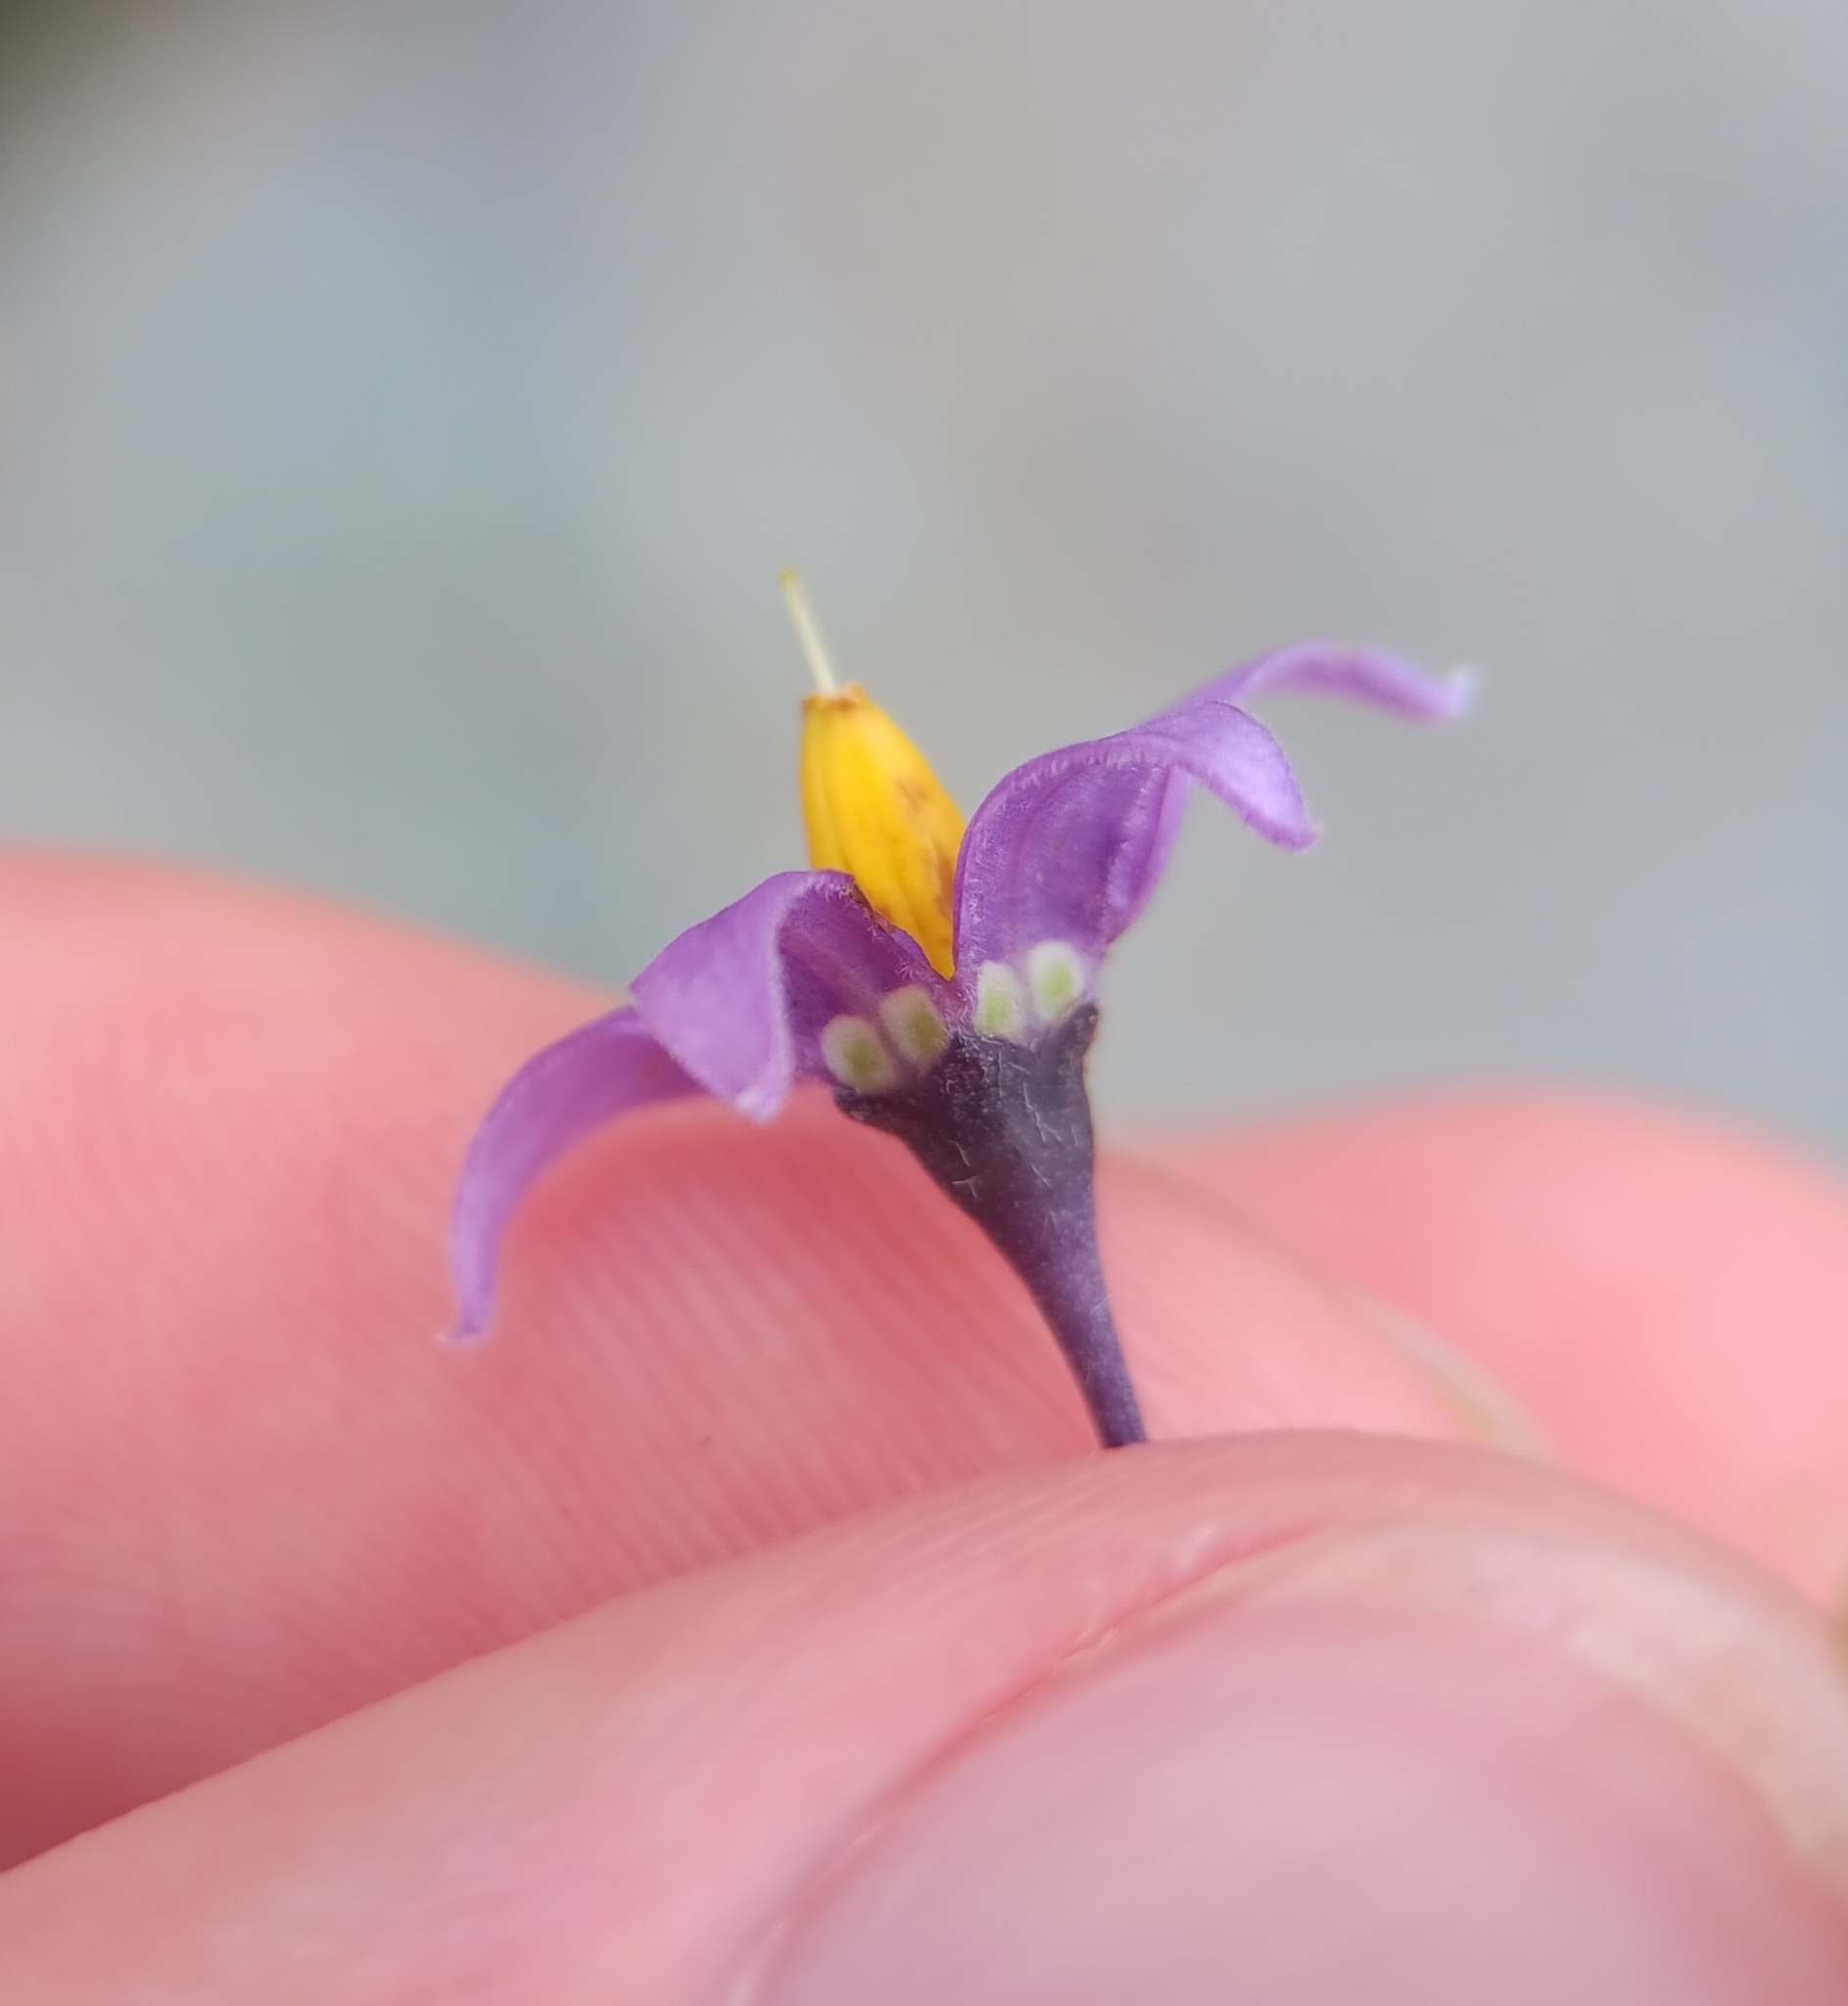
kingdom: Plantae
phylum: Tracheophyta
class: Magnoliopsida
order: Solanales
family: Solanaceae
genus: Solanum
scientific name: Solanum dulcamara
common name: Climbing nightshade
